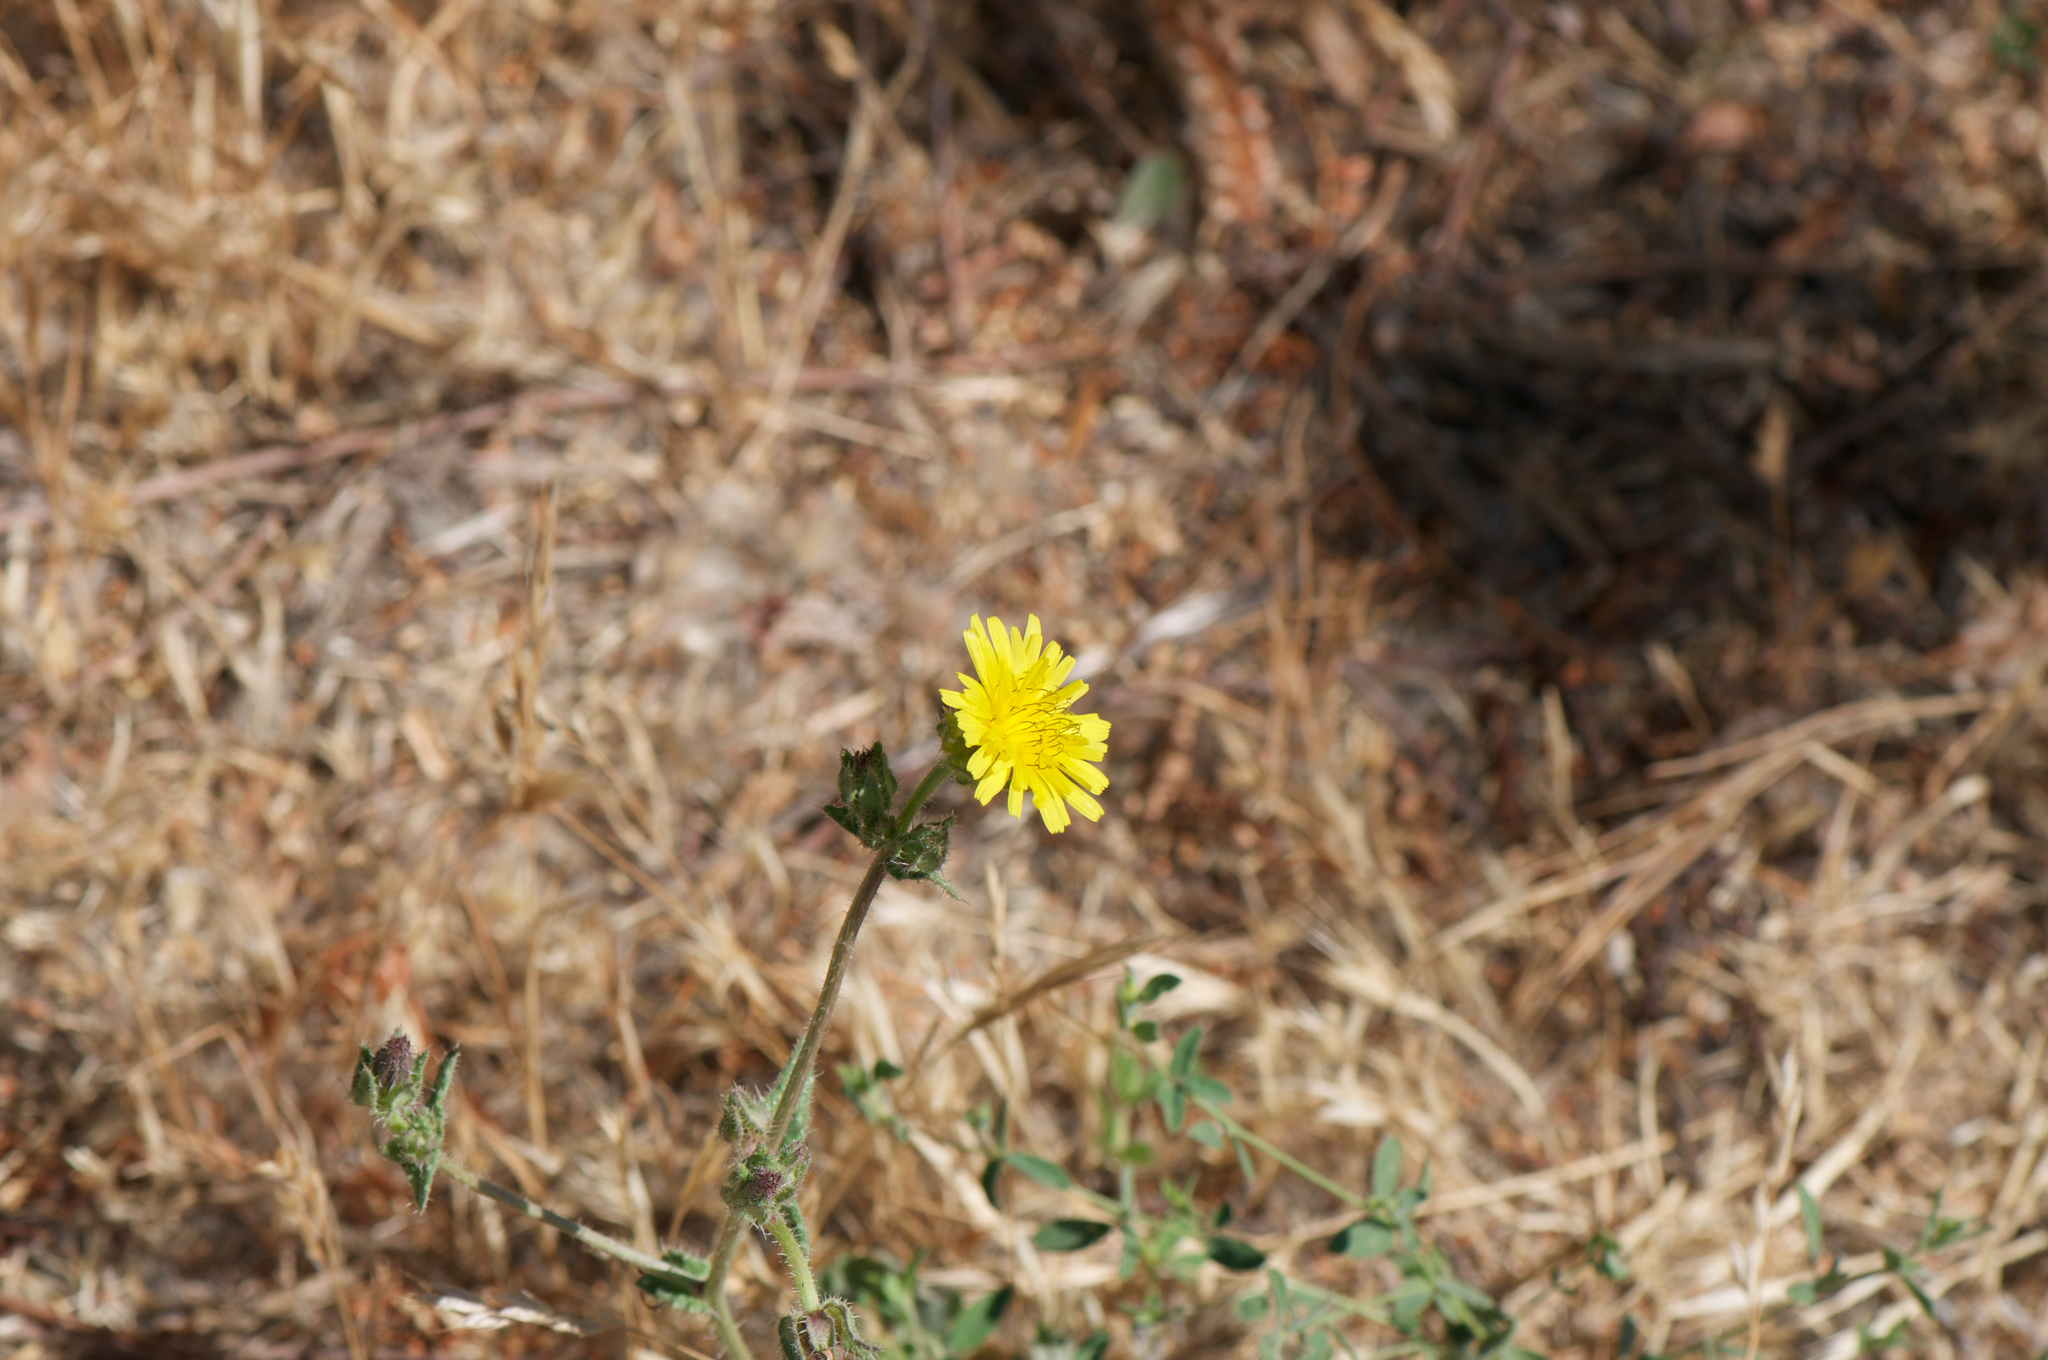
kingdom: Plantae
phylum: Tracheophyta
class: Magnoliopsida
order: Asterales
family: Asteraceae
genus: Helminthotheca
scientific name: Helminthotheca echioides
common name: Ox-tongue
